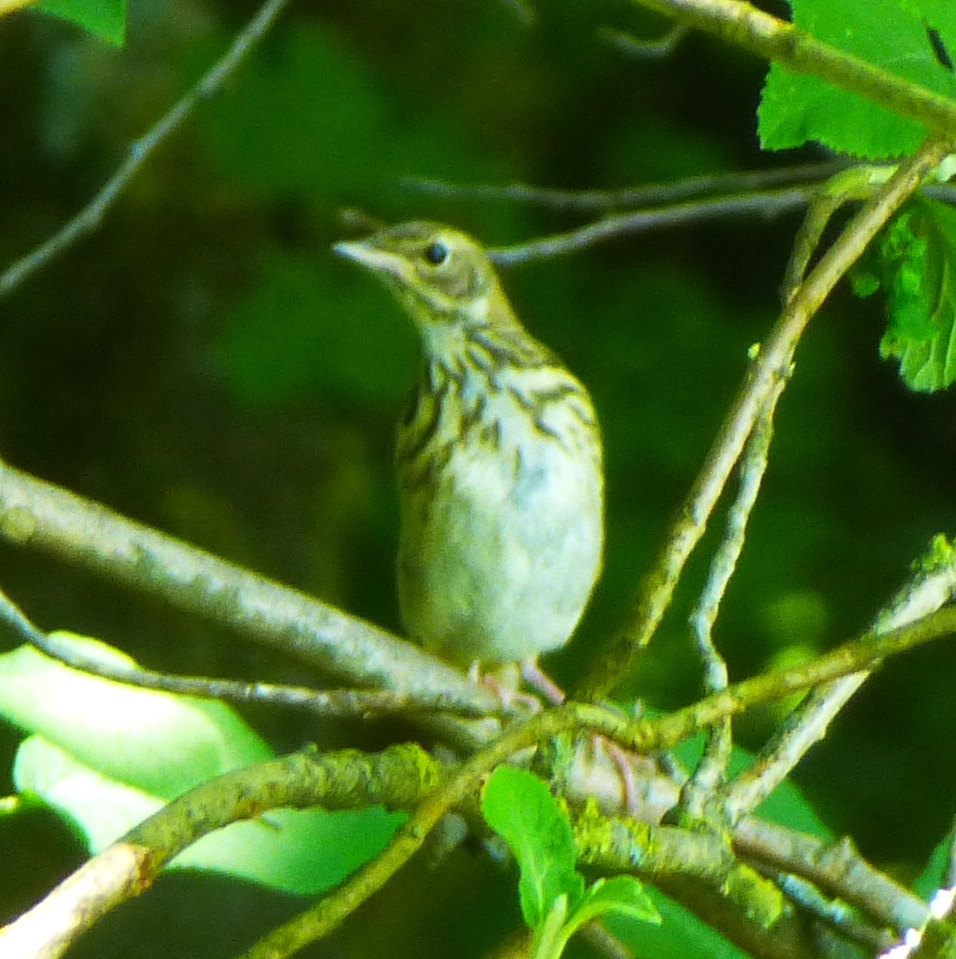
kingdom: Animalia
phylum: Chordata
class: Aves
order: Passeriformes
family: Motacillidae
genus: Anthus
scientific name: Anthus trivialis
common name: Tree pipit
